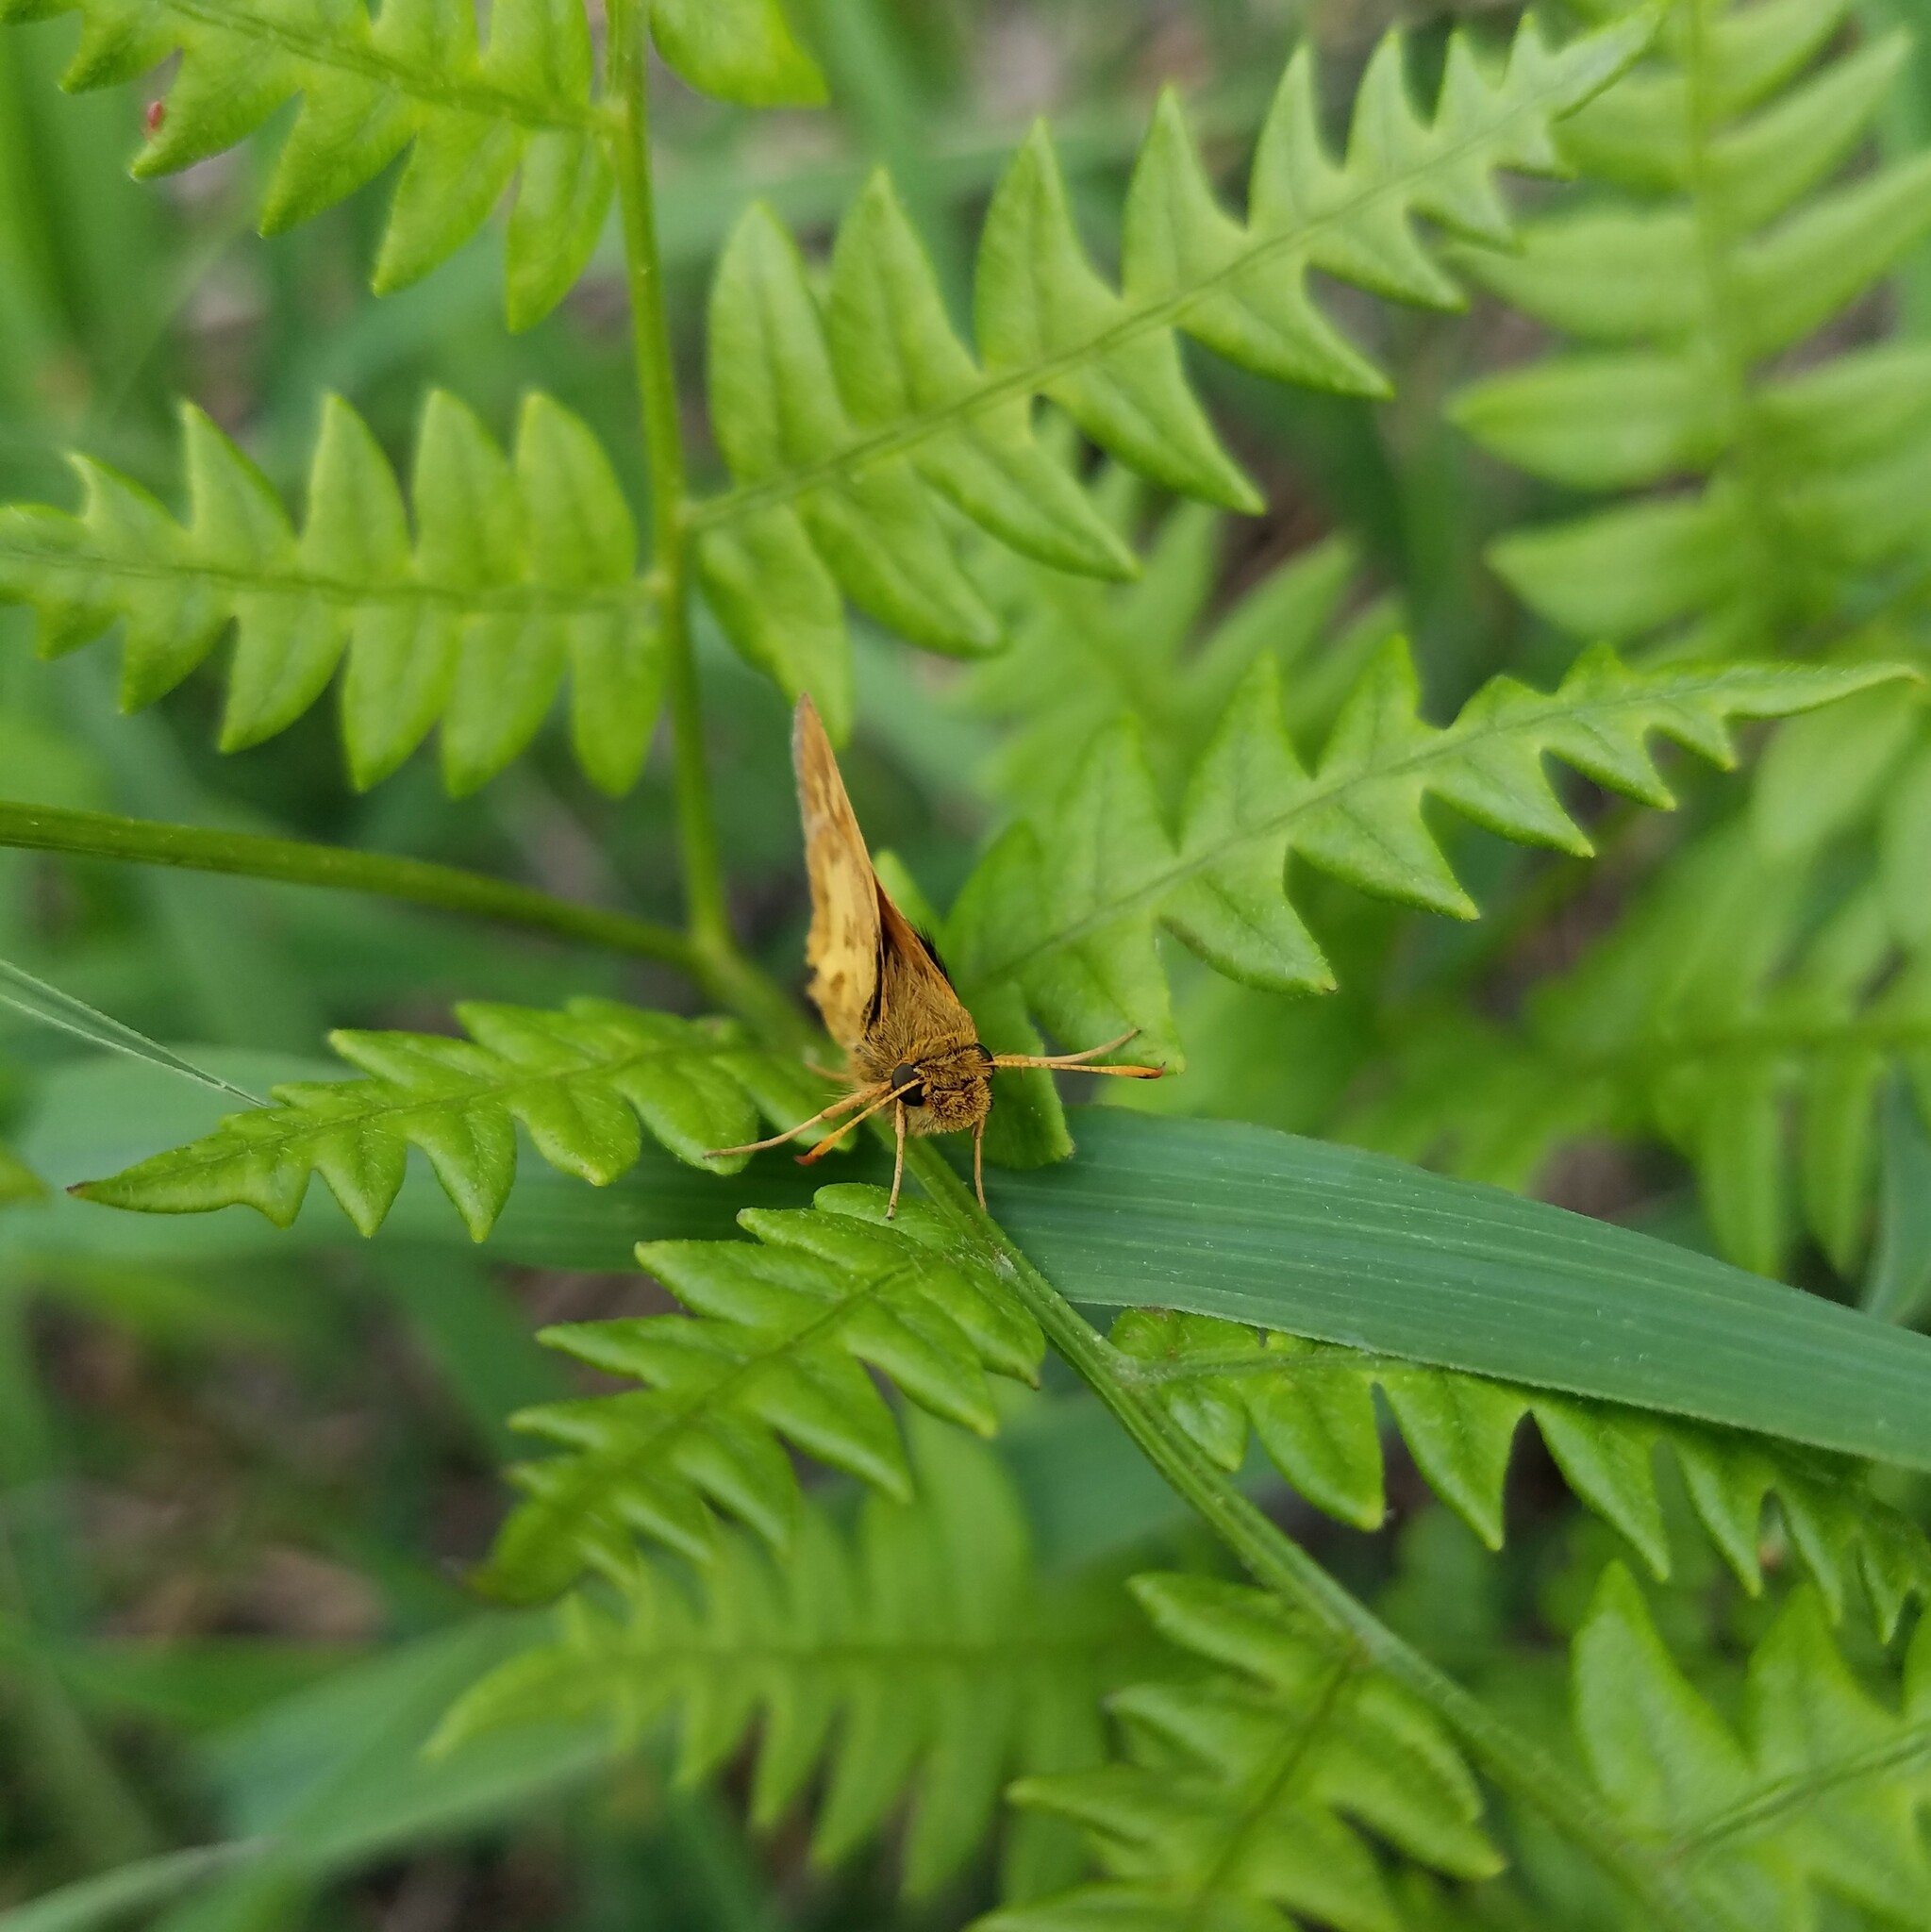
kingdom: Animalia
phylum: Arthropoda
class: Insecta
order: Lepidoptera
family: Hesperiidae
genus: Polites
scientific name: Polites coras
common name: Peck's skipper
